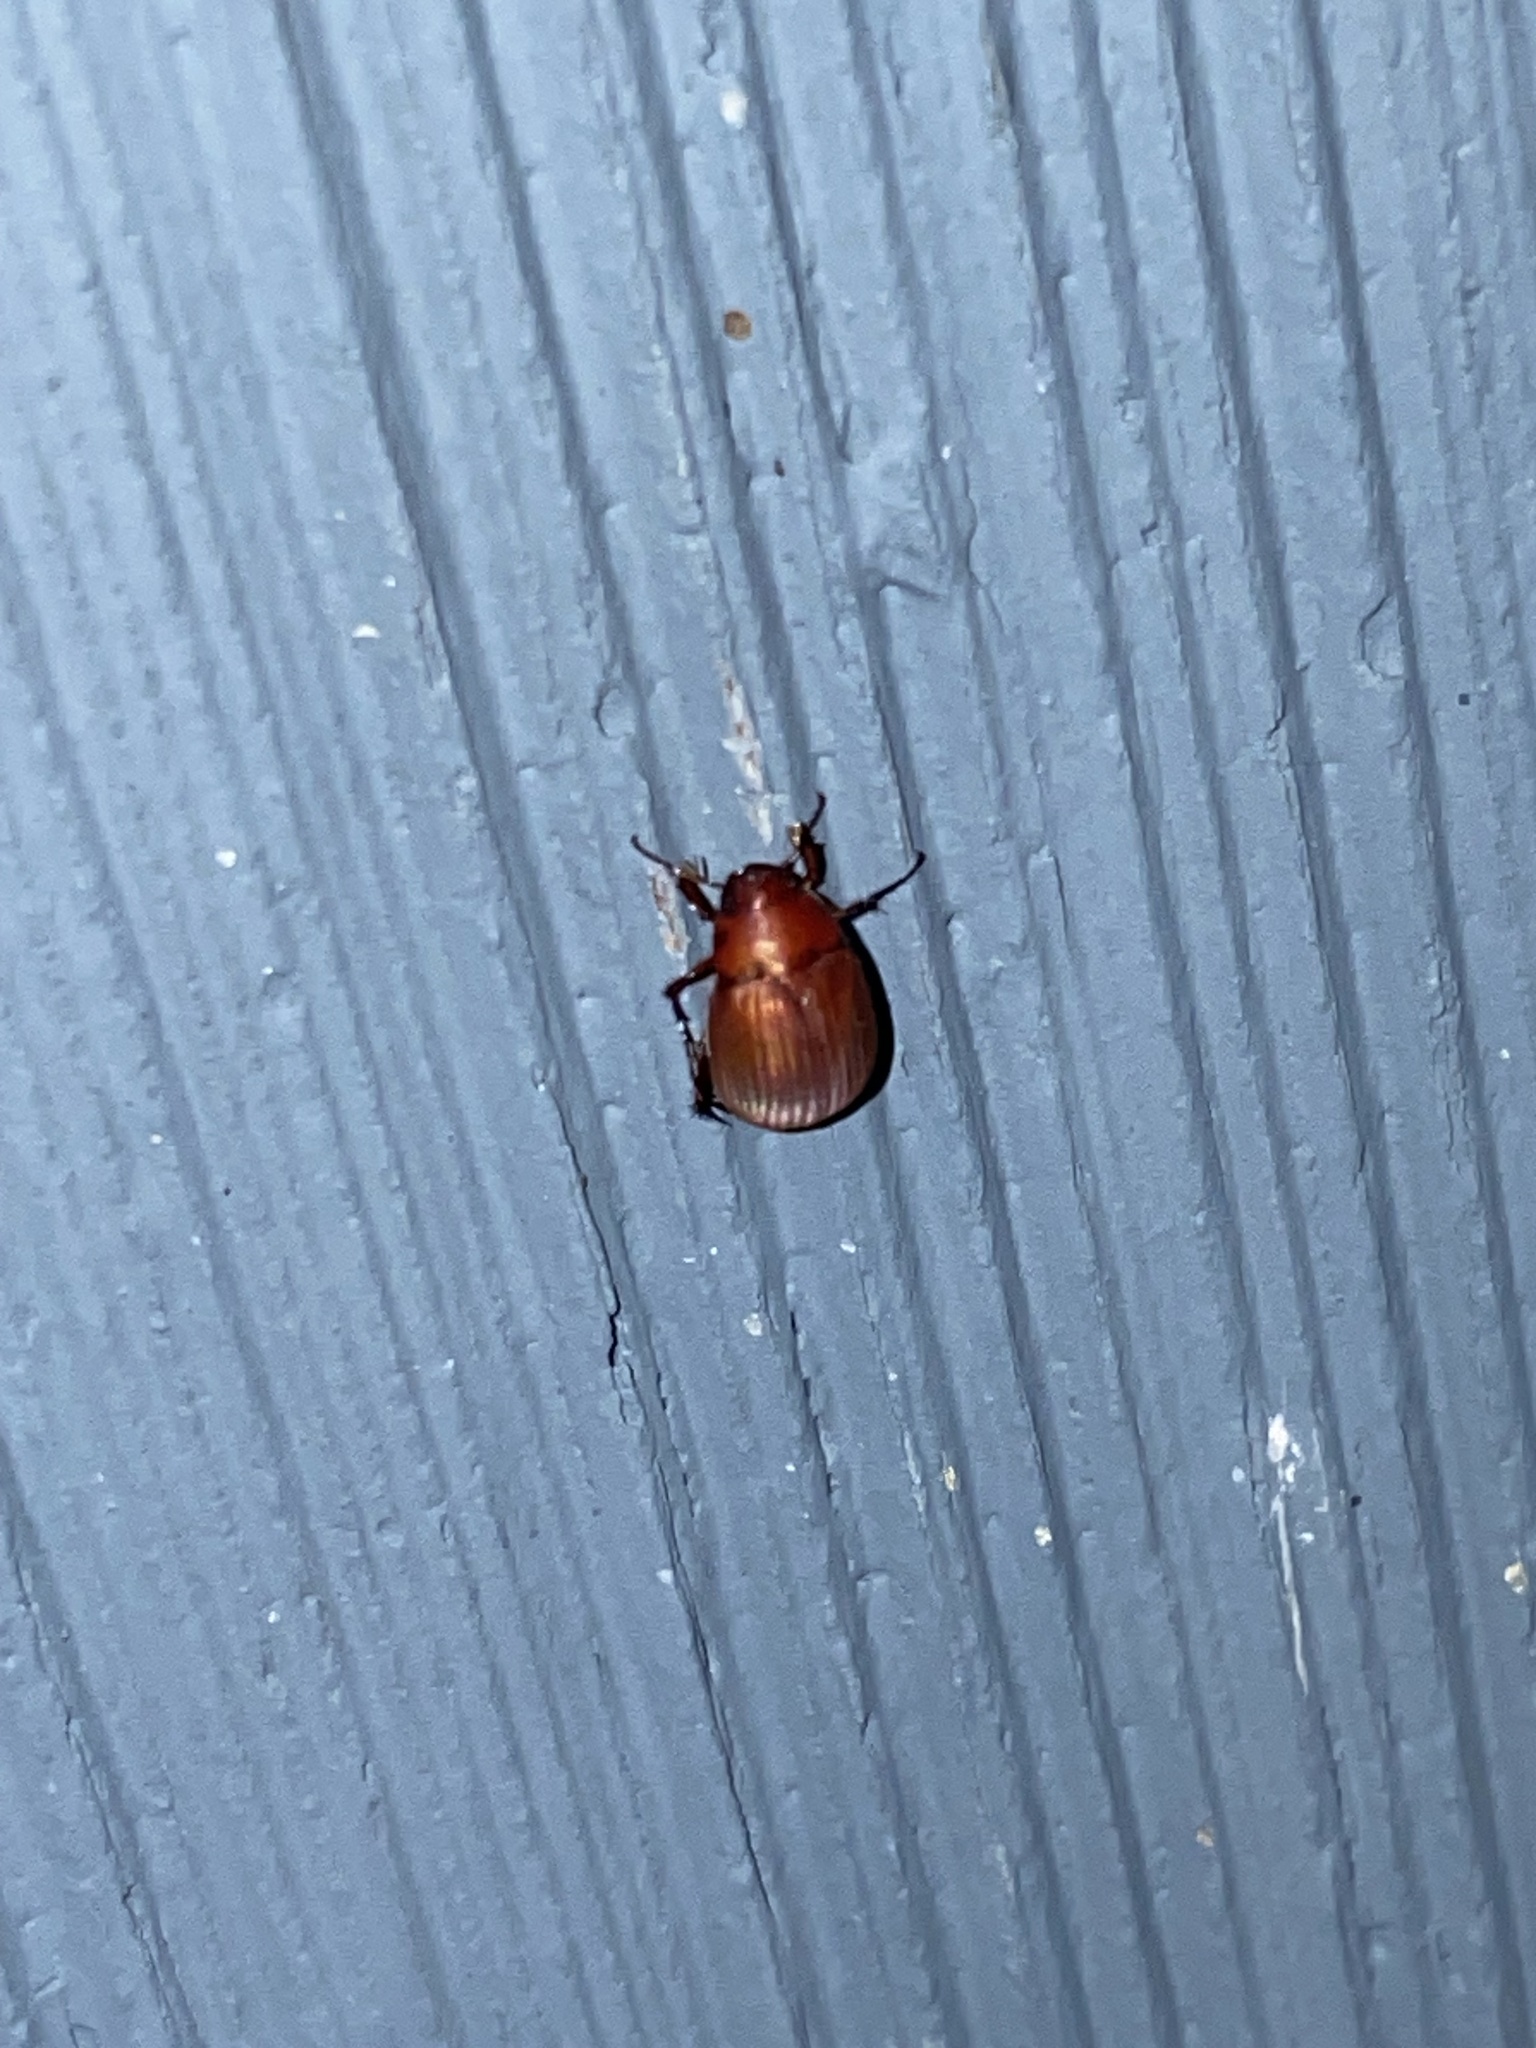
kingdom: Animalia
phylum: Arthropoda
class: Insecta
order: Coleoptera
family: Scarabaeidae
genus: Maladera
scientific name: Maladera formosae
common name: Asiatic garden beetle
